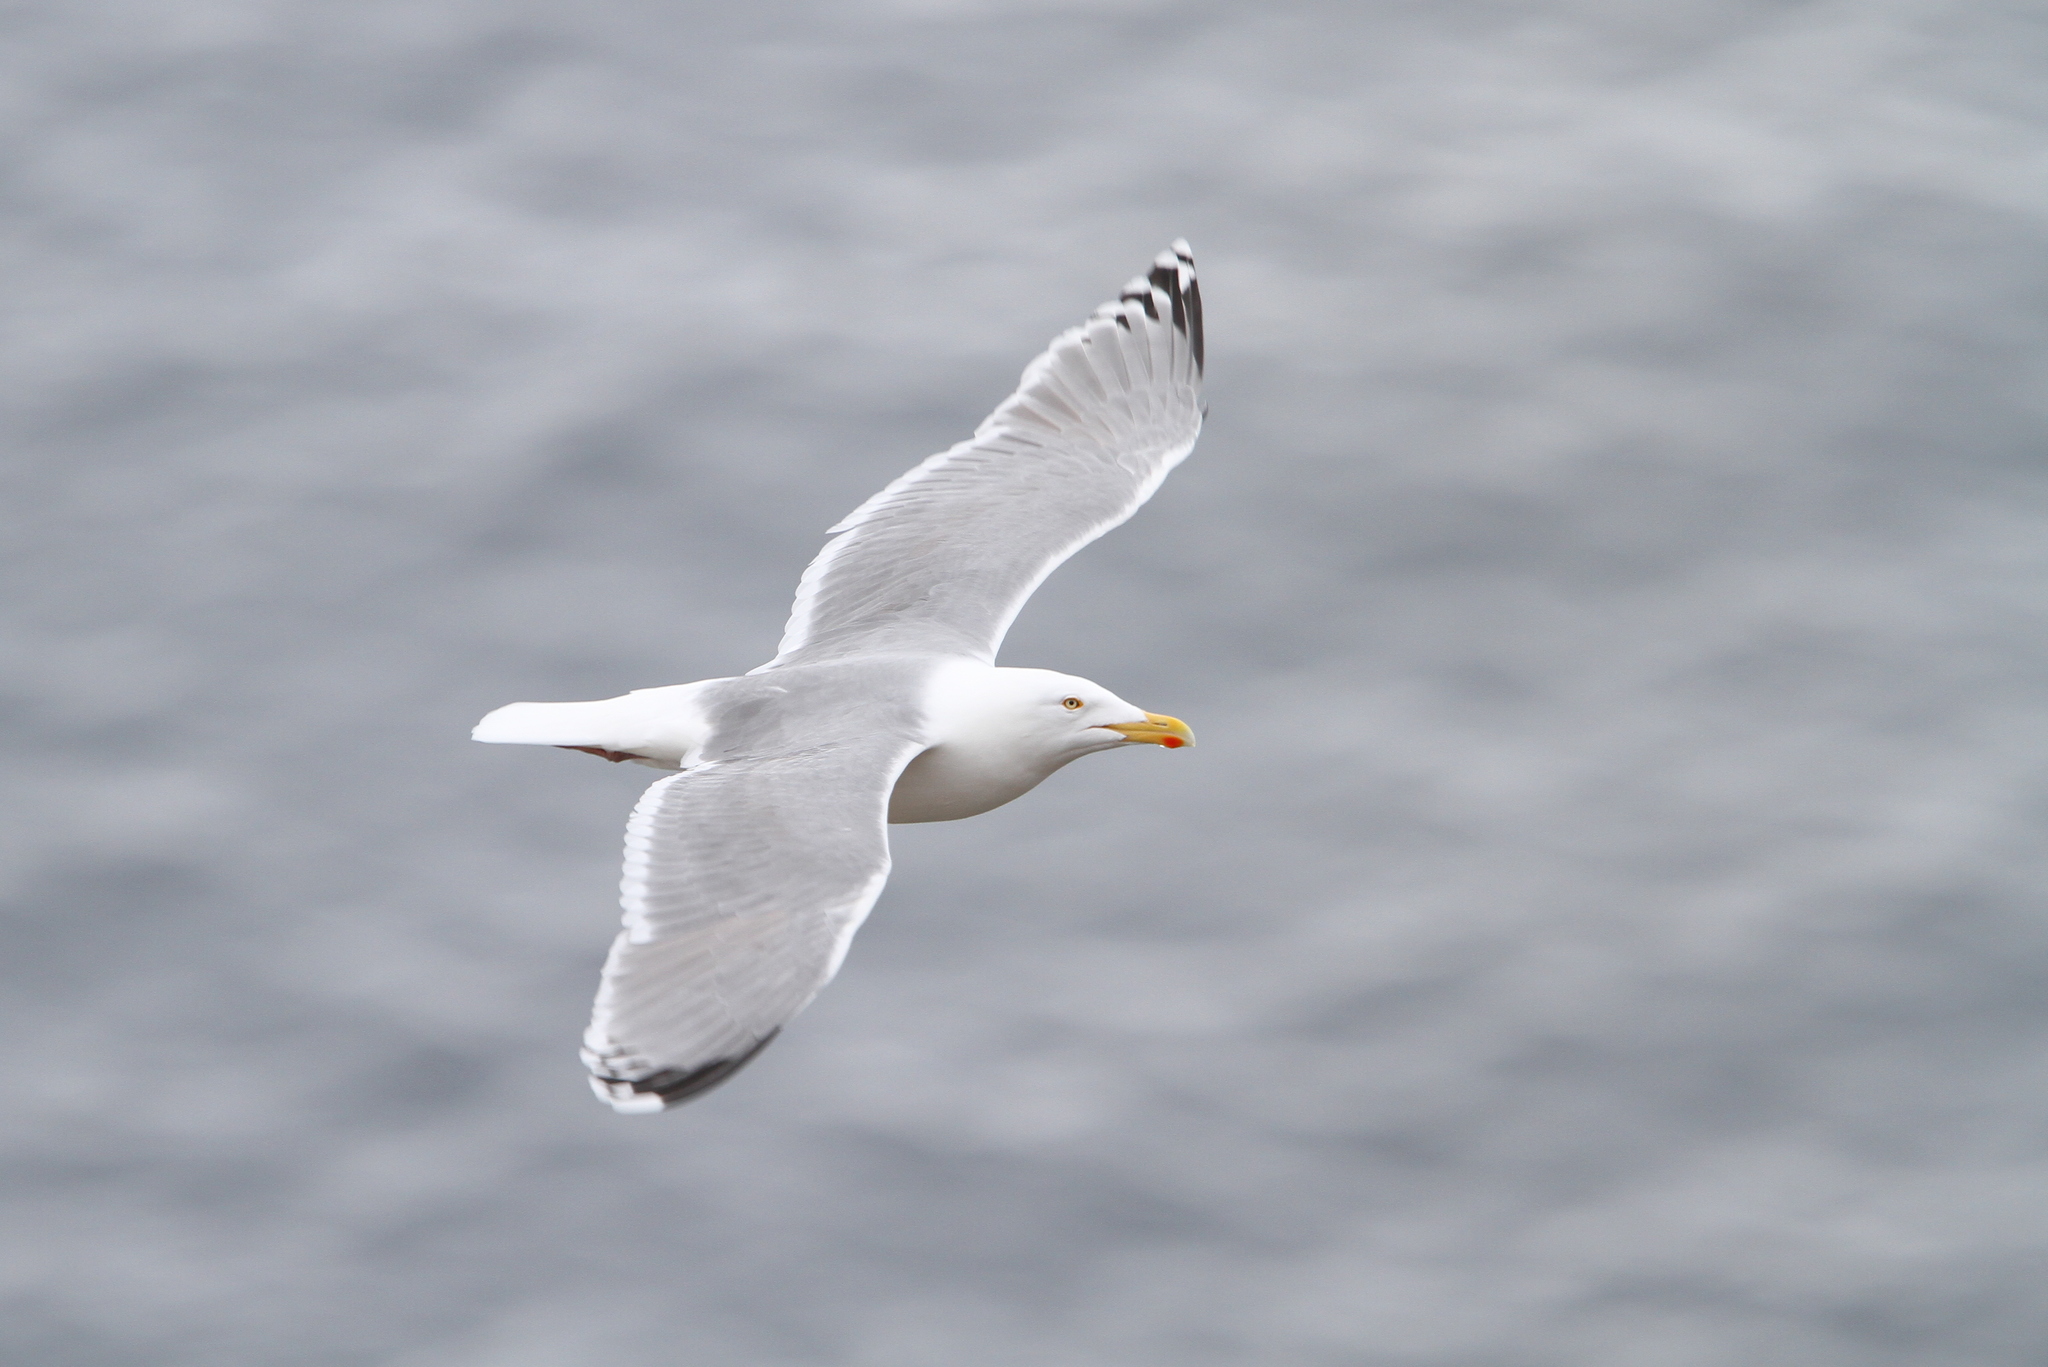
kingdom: Animalia
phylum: Chordata
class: Aves
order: Charadriiformes
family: Laridae
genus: Larus
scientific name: Larus argentatus
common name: Herring gull
